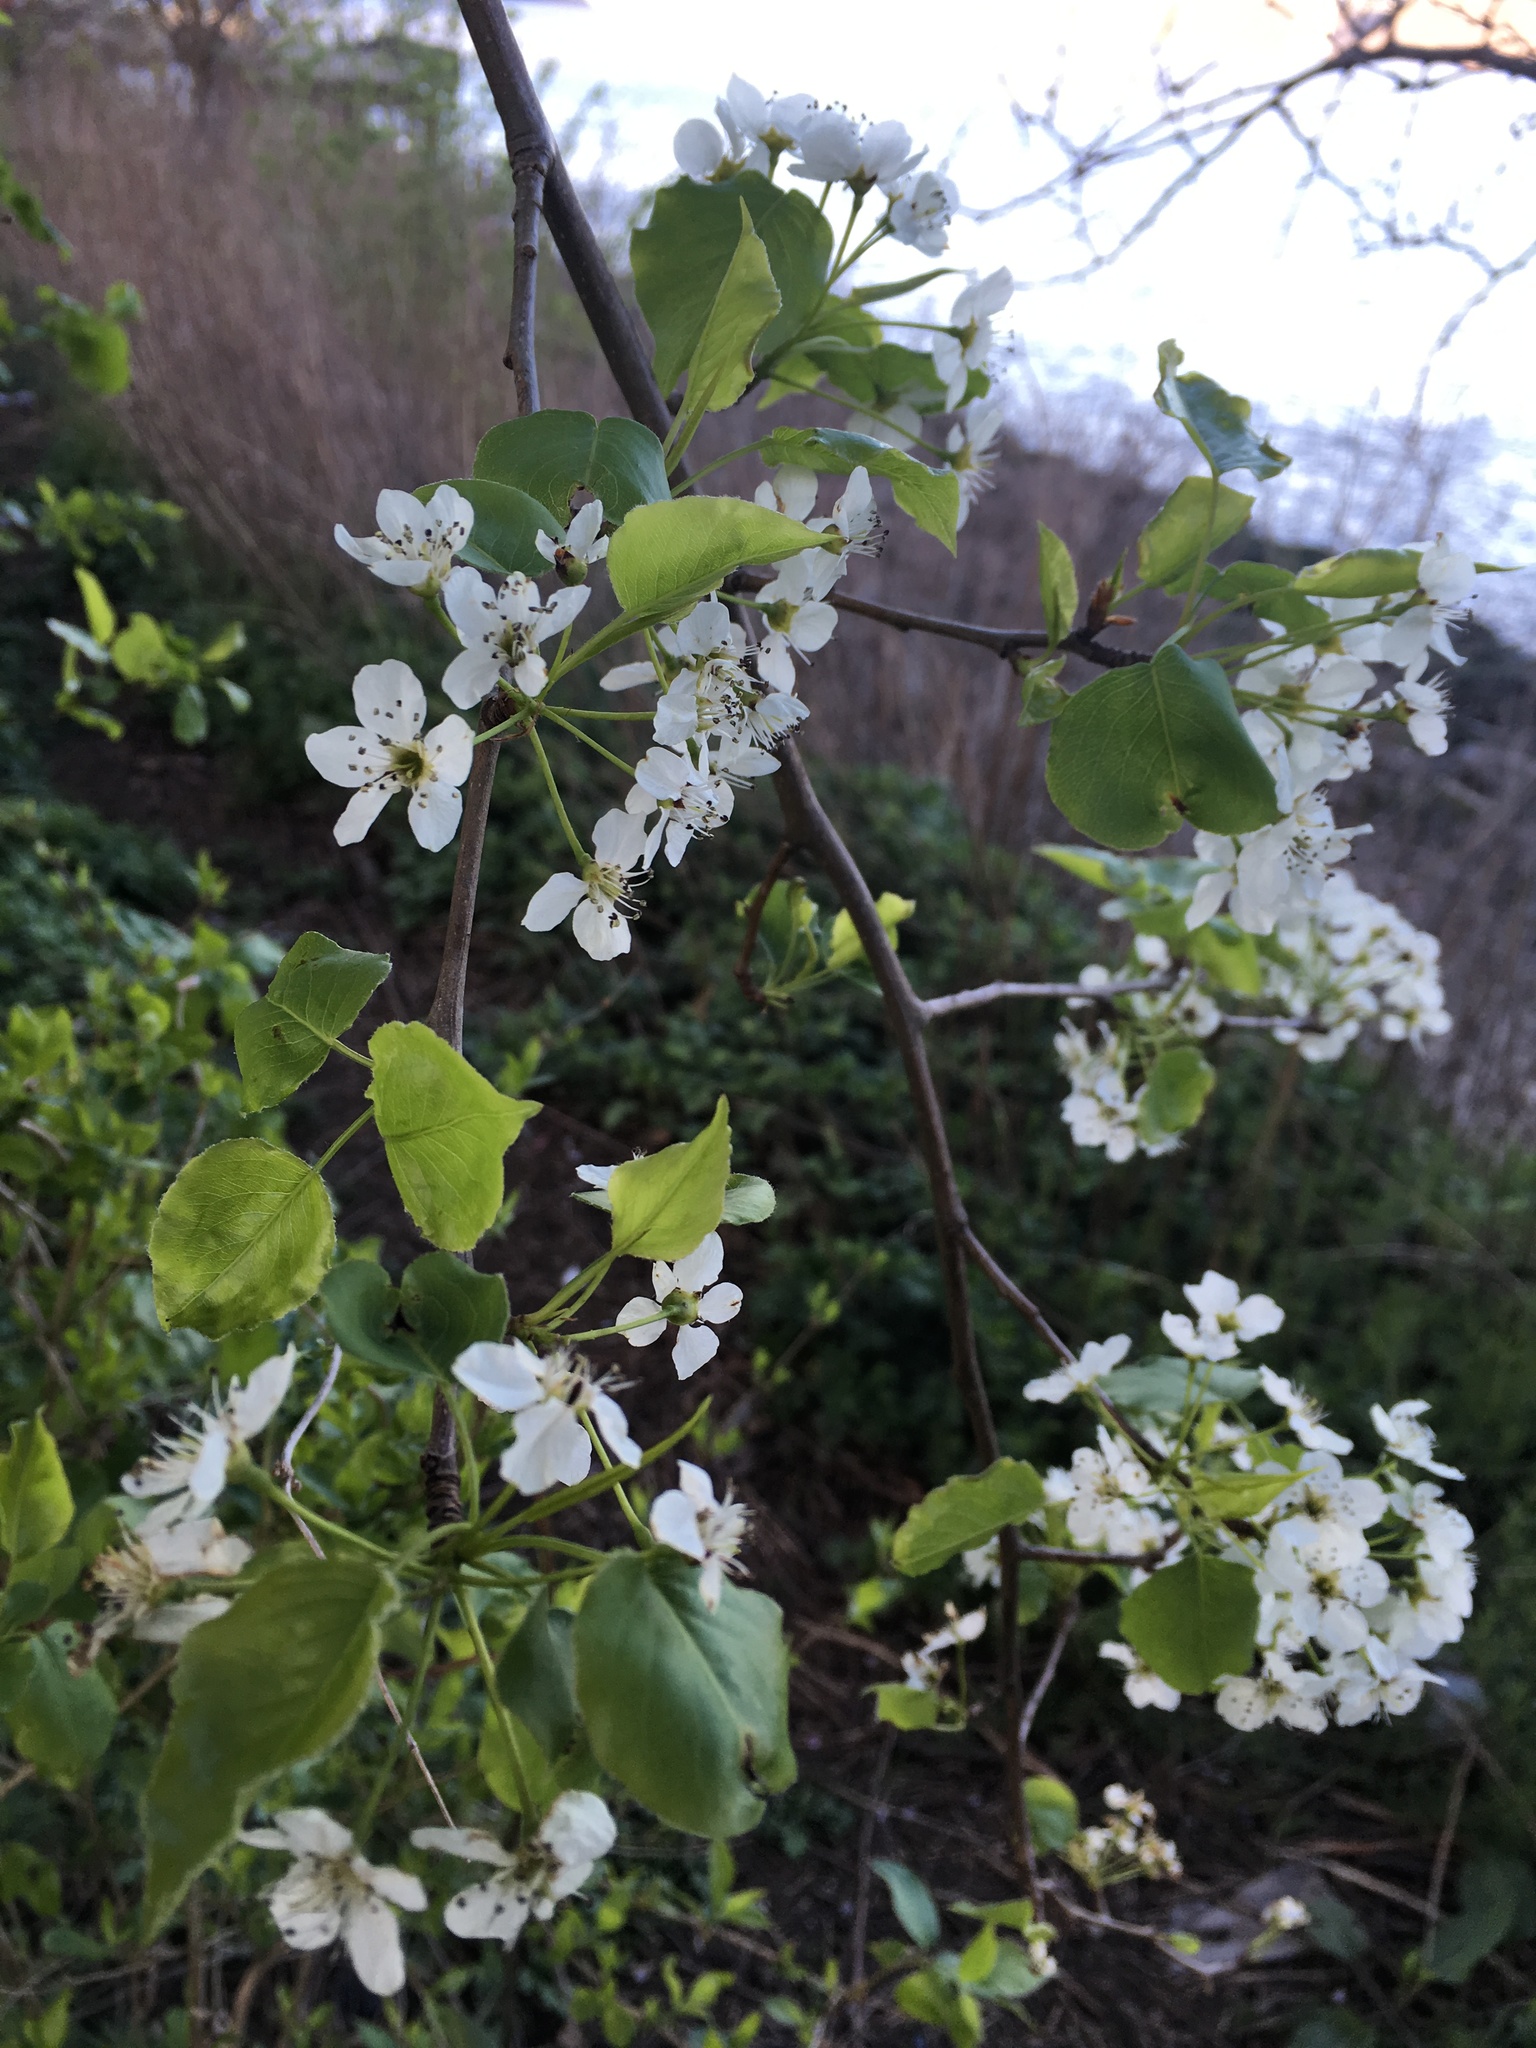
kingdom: Plantae
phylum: Tracheophyta
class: Magnoliopsida
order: Rosales
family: Rosaceae
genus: Pyrus
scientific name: Pyrus calleryana
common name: Callery pear
